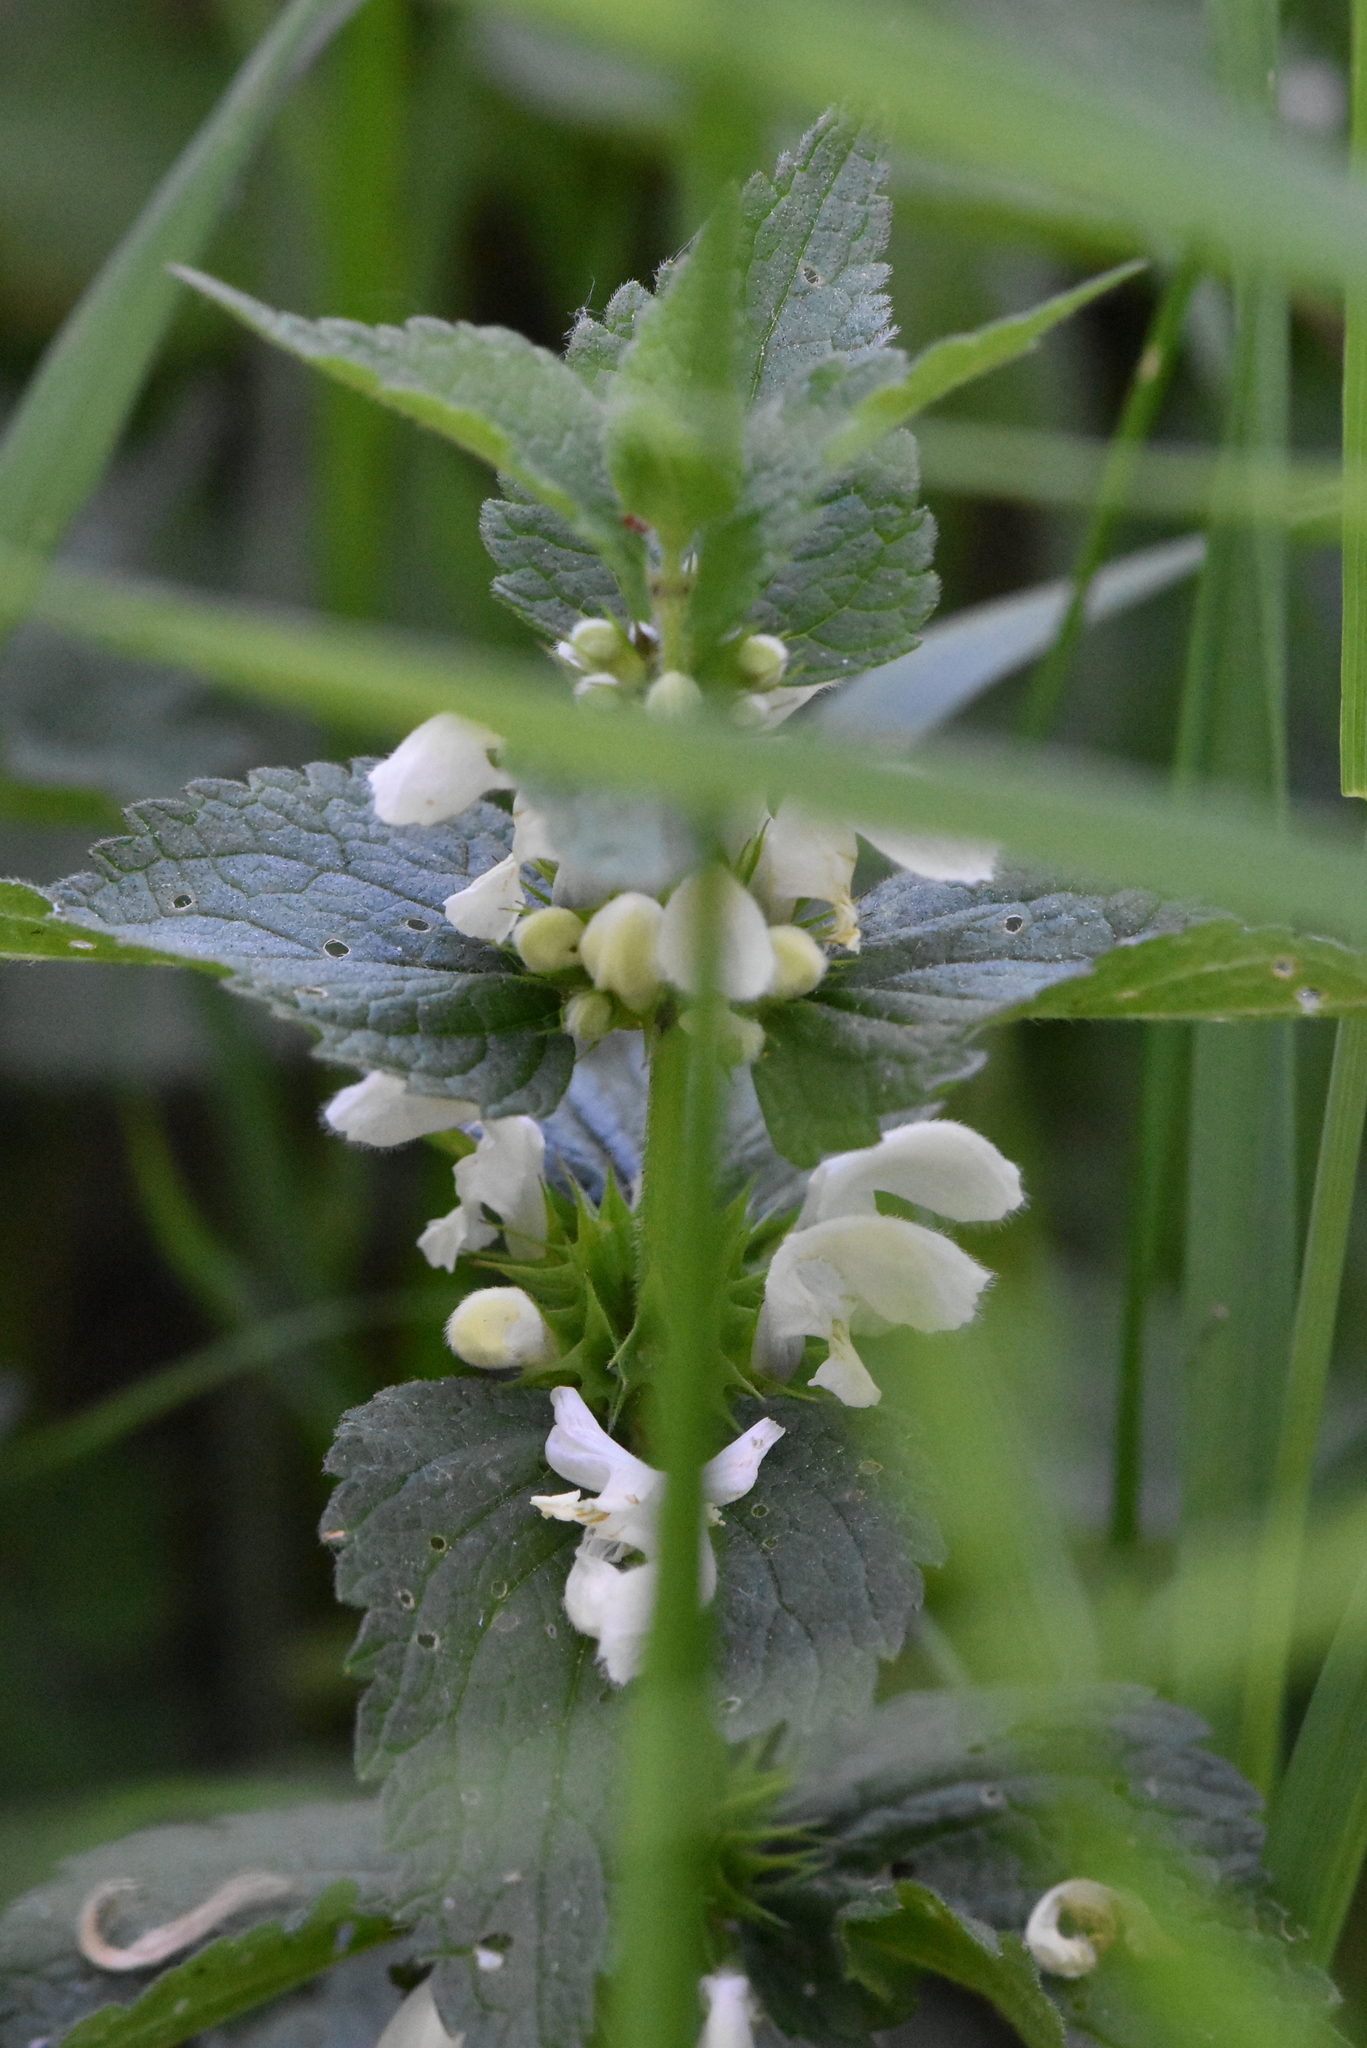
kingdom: Plantae
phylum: Tracheophyta
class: Magnoliopsida
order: Lamiales
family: Lamiaceae
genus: Lamium
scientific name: Lamium album
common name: White dead-nettle
